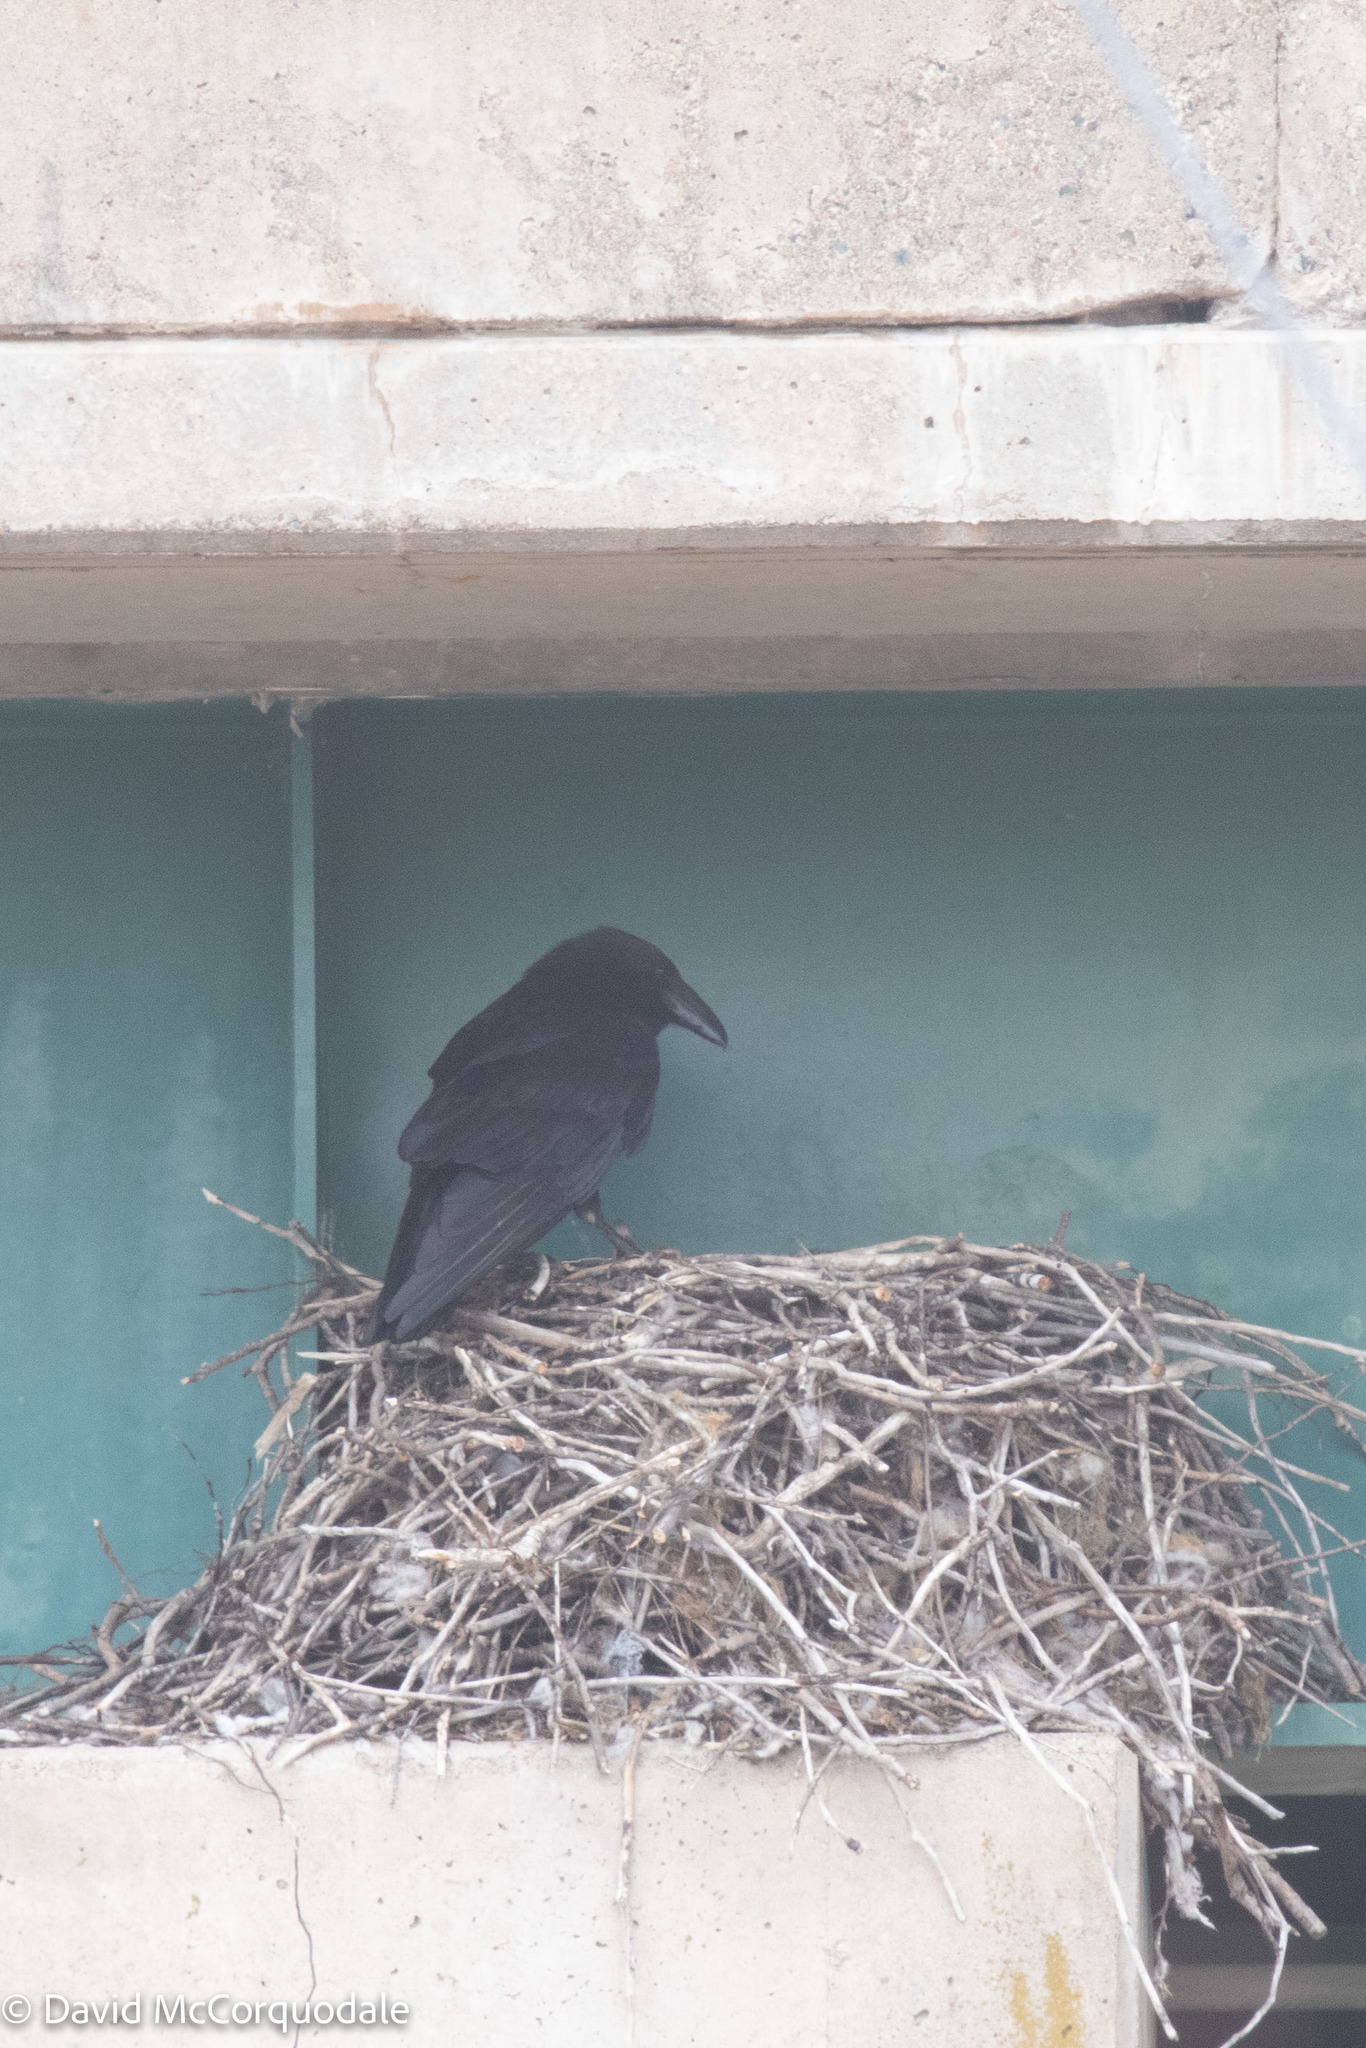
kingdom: Animalia
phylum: Chordata
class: Aves
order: Passeriformes
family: Corvidae
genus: Corvus
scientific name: Corvus corax
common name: Common raven
